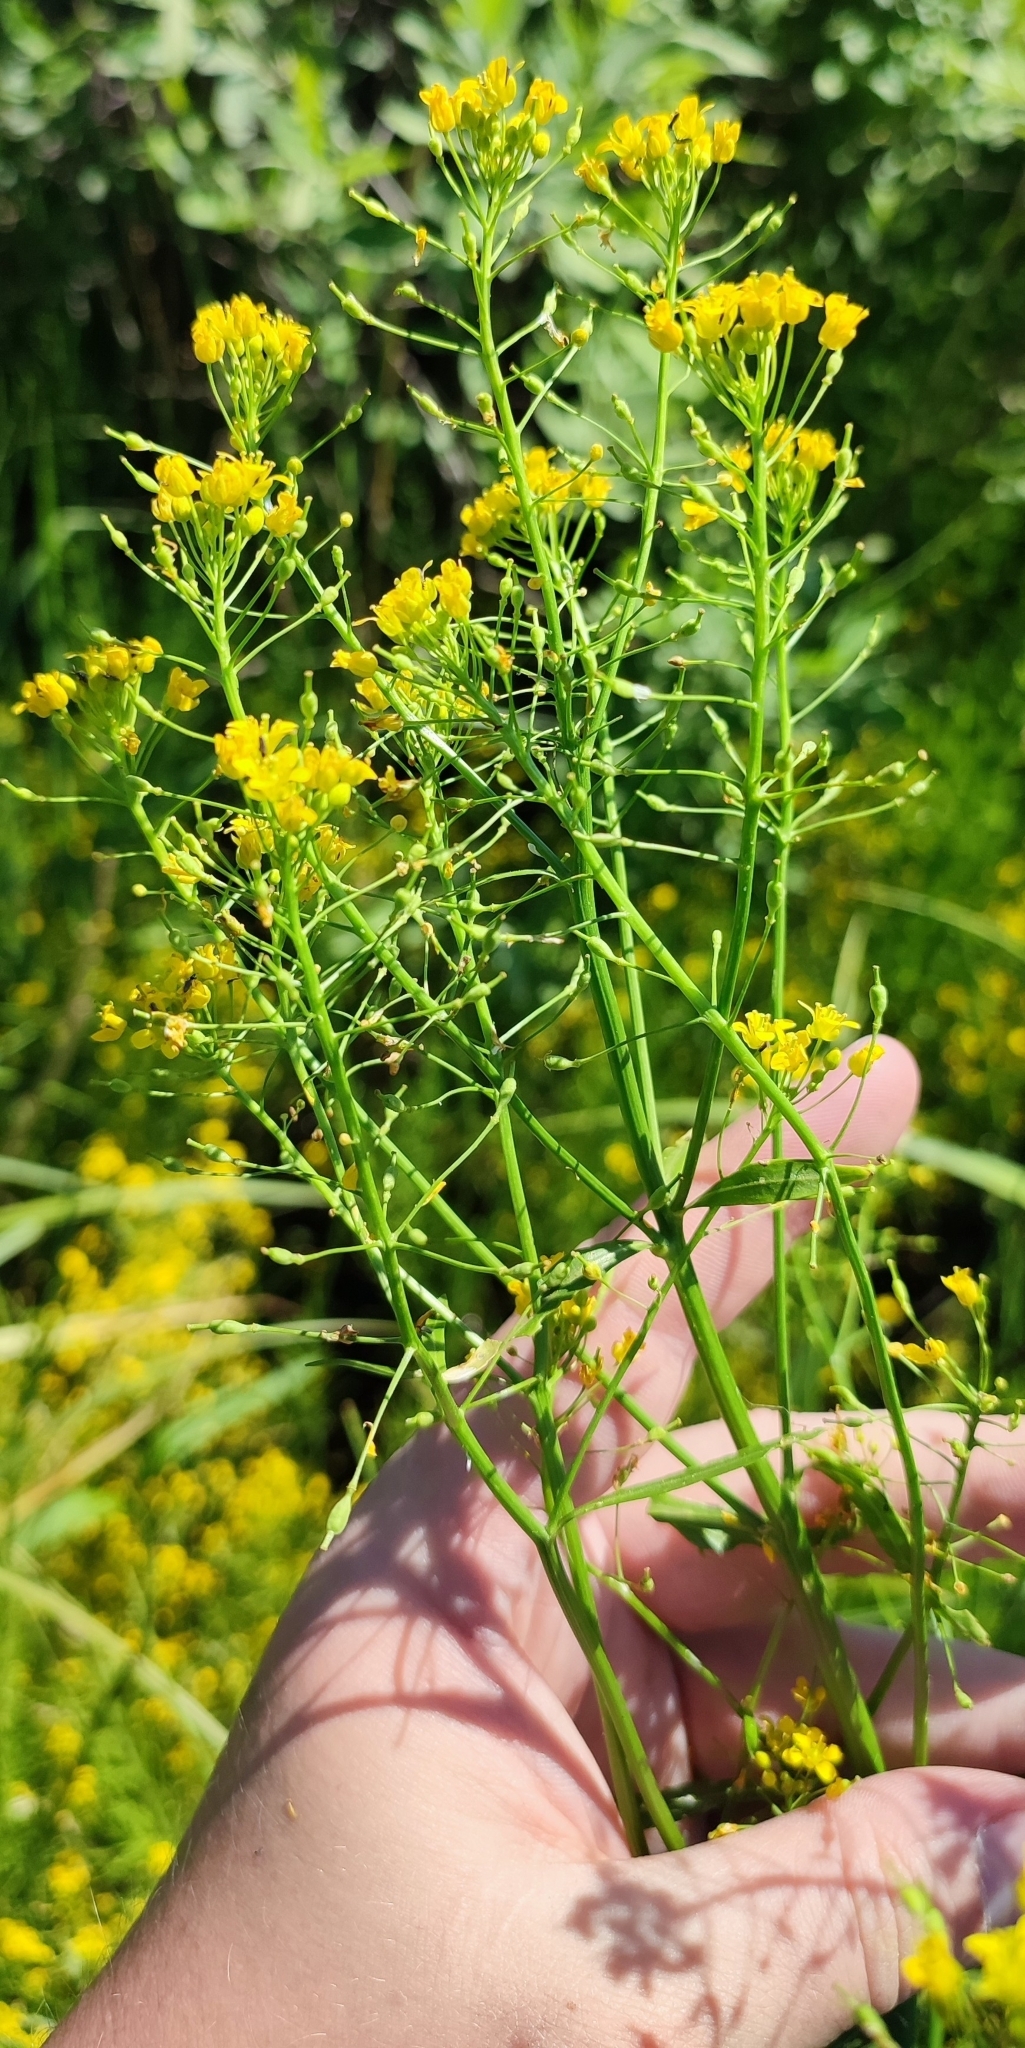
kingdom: Plantae
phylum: Tracheophyta
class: Magnoliopsida
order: Brassicales
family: Brassicaceae
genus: Rorippa
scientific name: Rorippa amphibia
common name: Great yellow-cress
